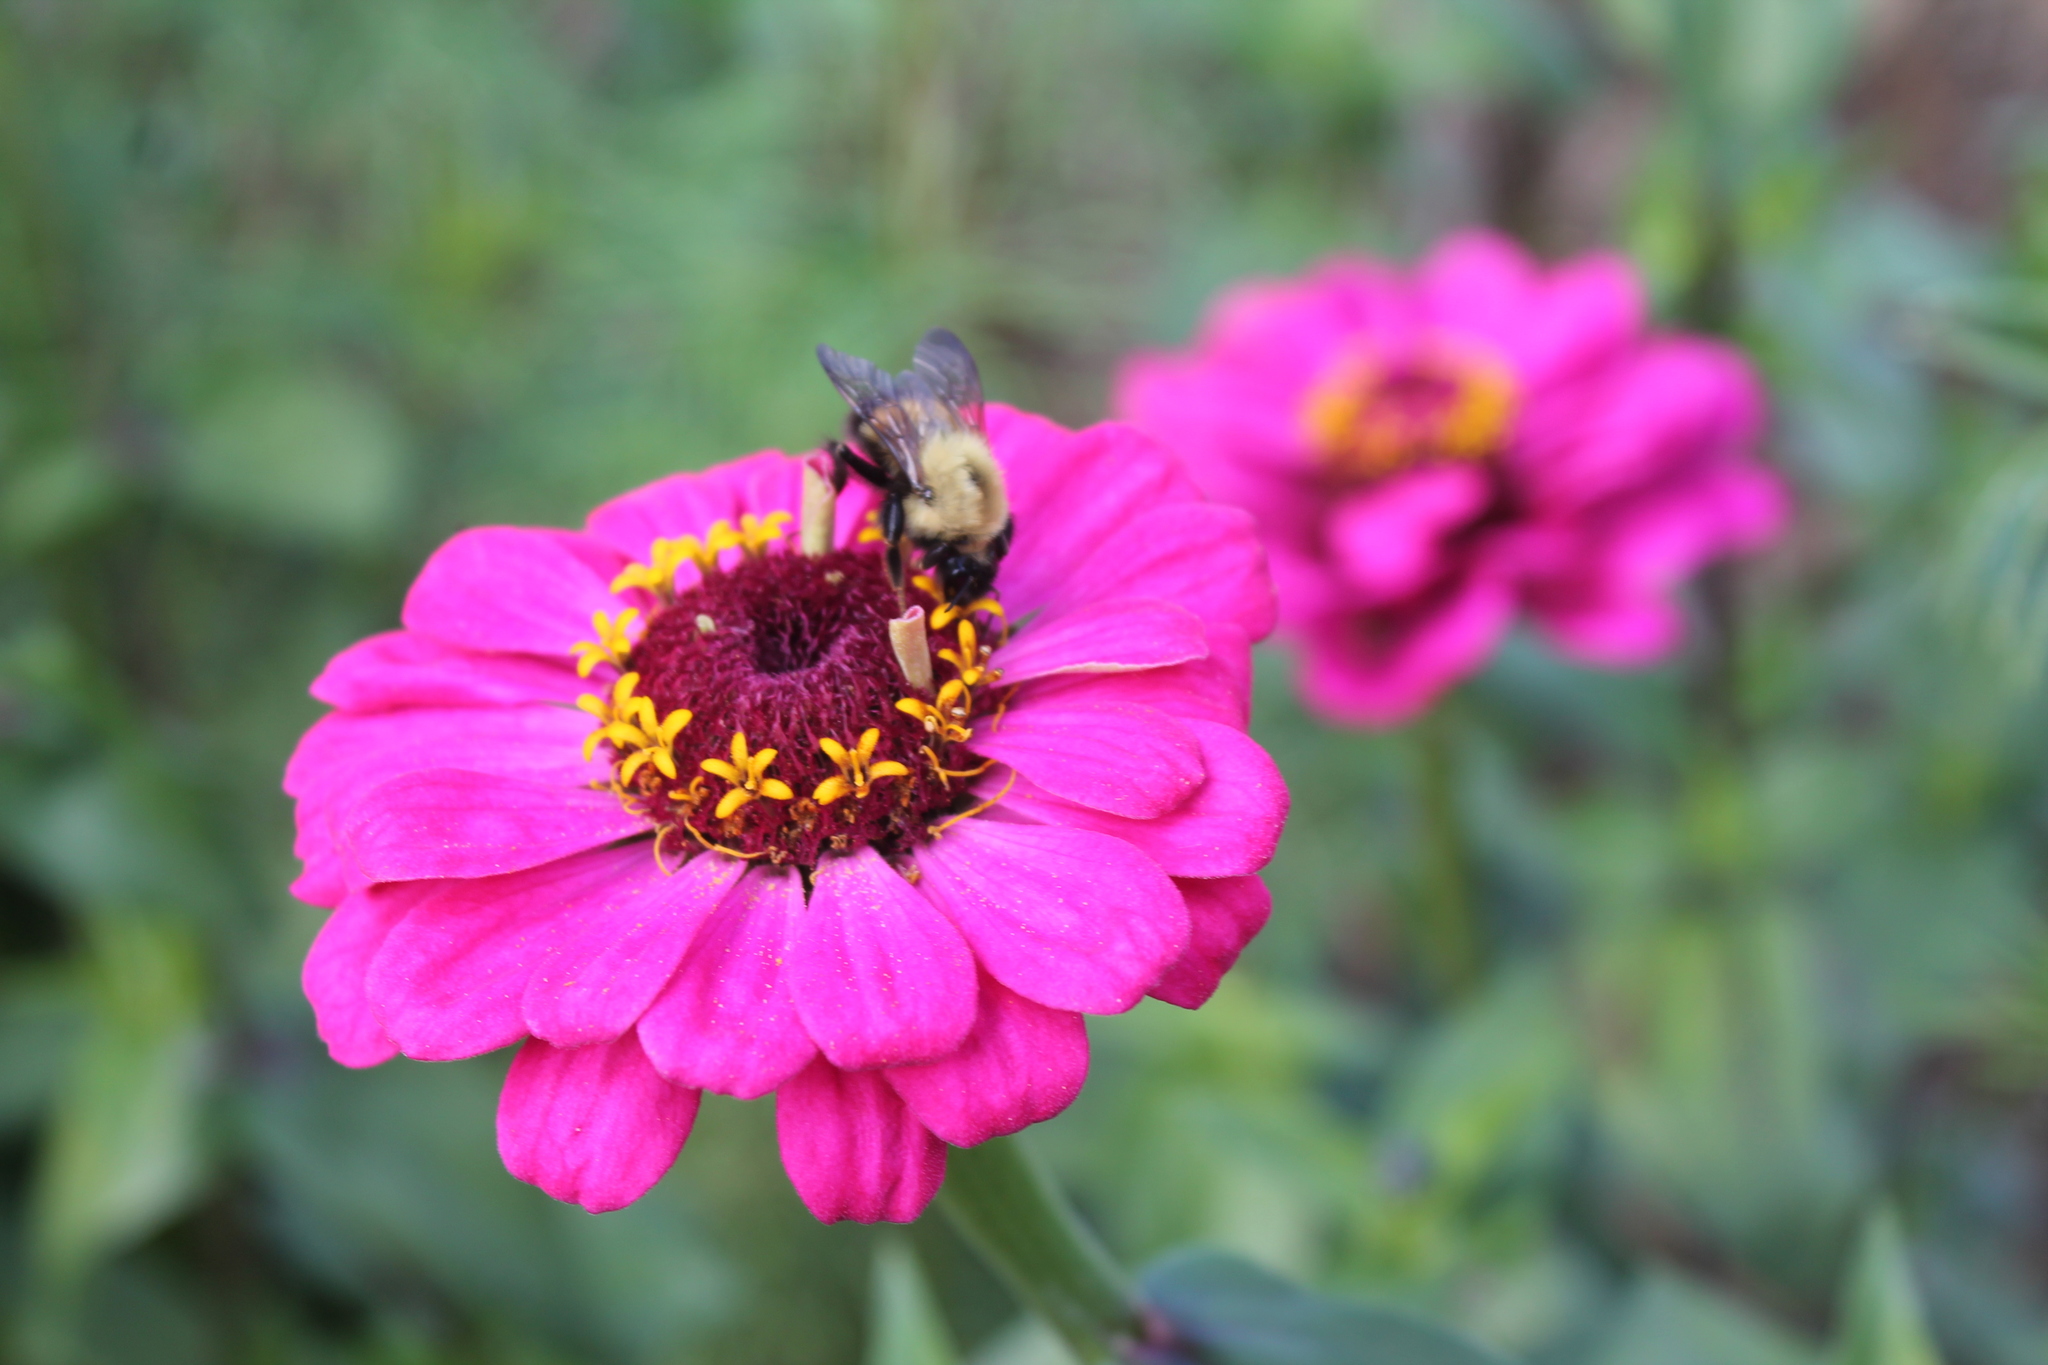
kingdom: Animalia
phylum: Arthropoda
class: Insecta
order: Hymenoptera
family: Apidae
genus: Pyrobombus
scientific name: Pyrobombus
